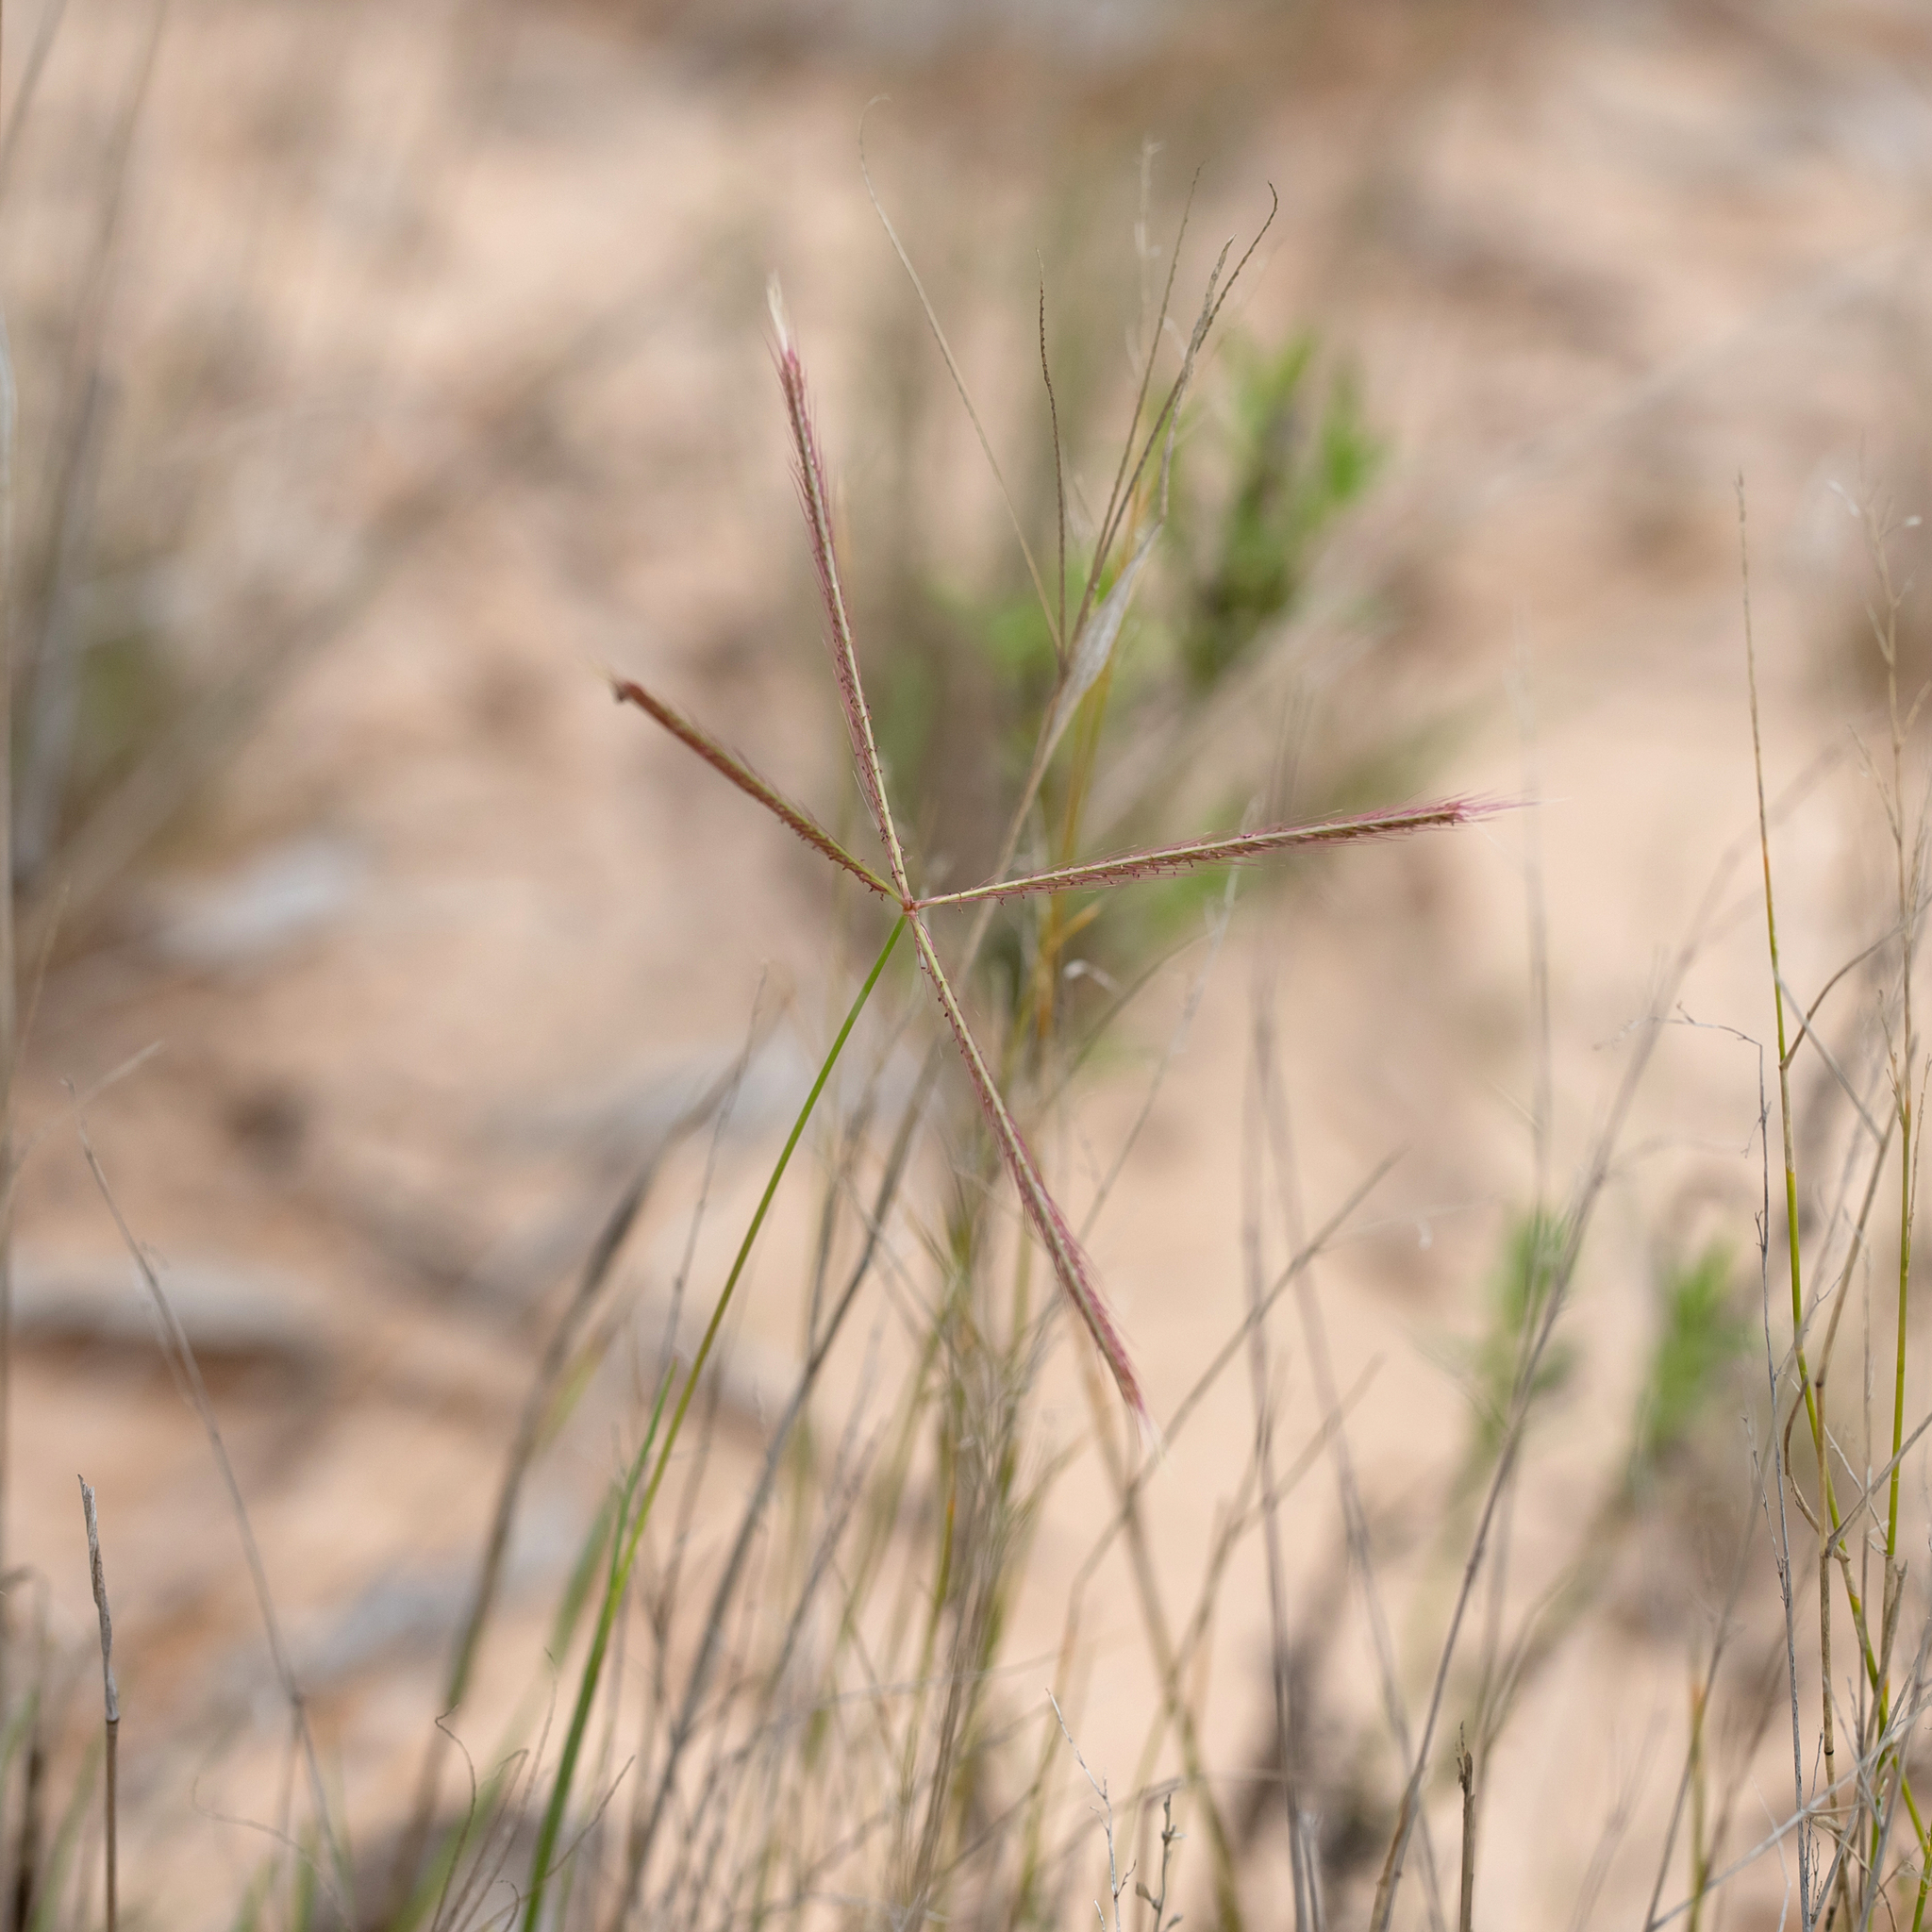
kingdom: Plantae
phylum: Tracheophyta
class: Liliopsida
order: Poales
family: Poaceae
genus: Chloris
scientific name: Chloris pectinata
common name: Comb windmill grass
